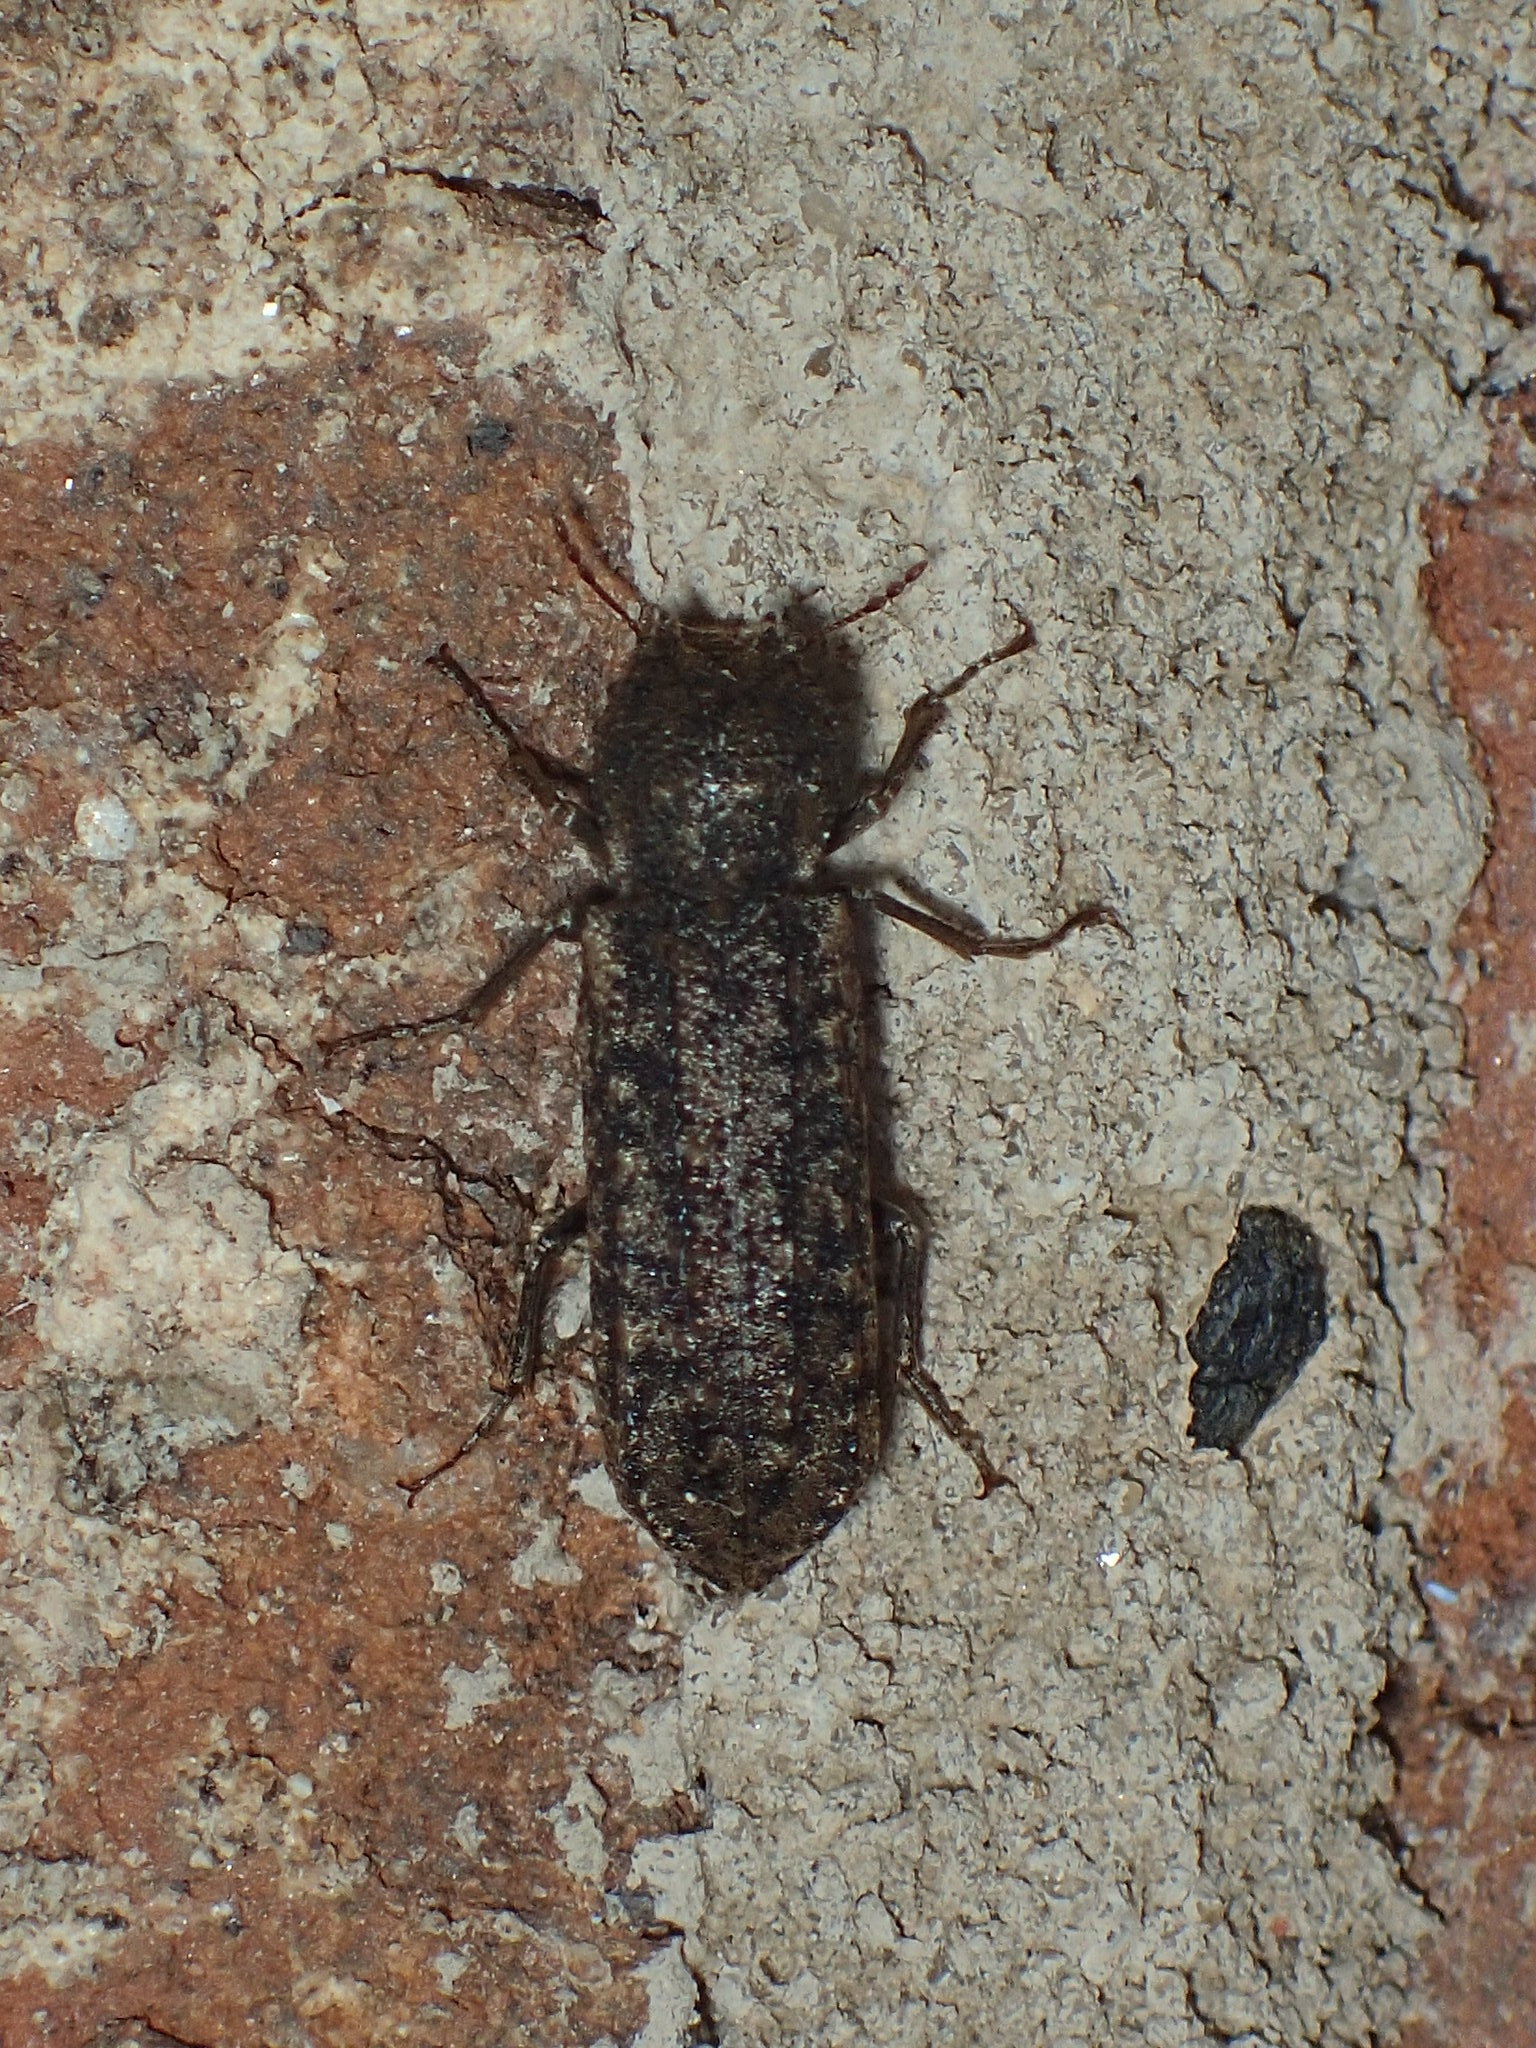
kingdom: Animalia
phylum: Arthropoda
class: Insecta
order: Coleoptera
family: Bostrichidae
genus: Lichenophanes
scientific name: Lichenophanes bicornis
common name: Two-horned powder-post beetle
